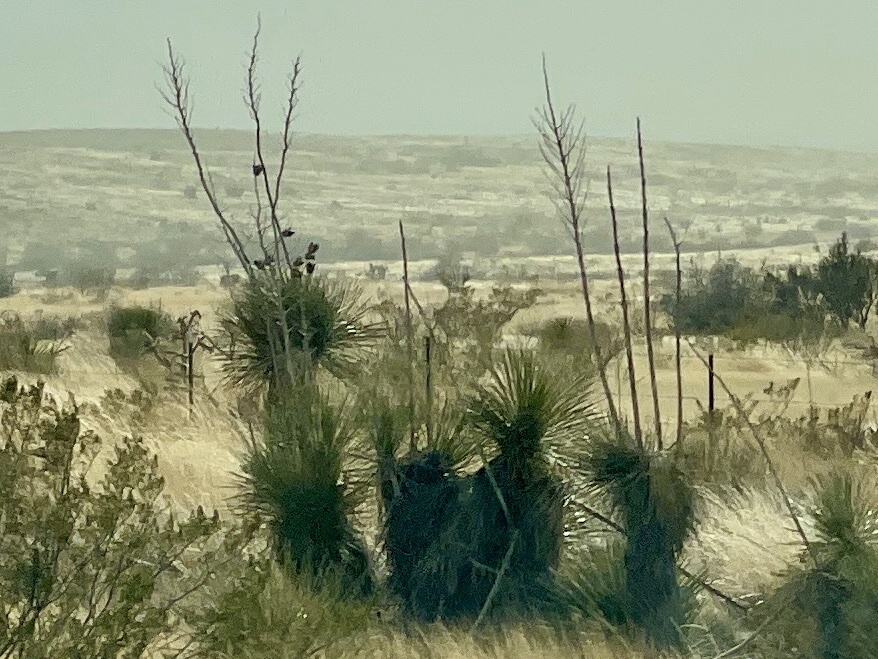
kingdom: Plantae
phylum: Tracheophyta
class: Liliopsida
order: Asparagales
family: Asparagaceae
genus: Yucca
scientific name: Yucca elata
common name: Palmella
